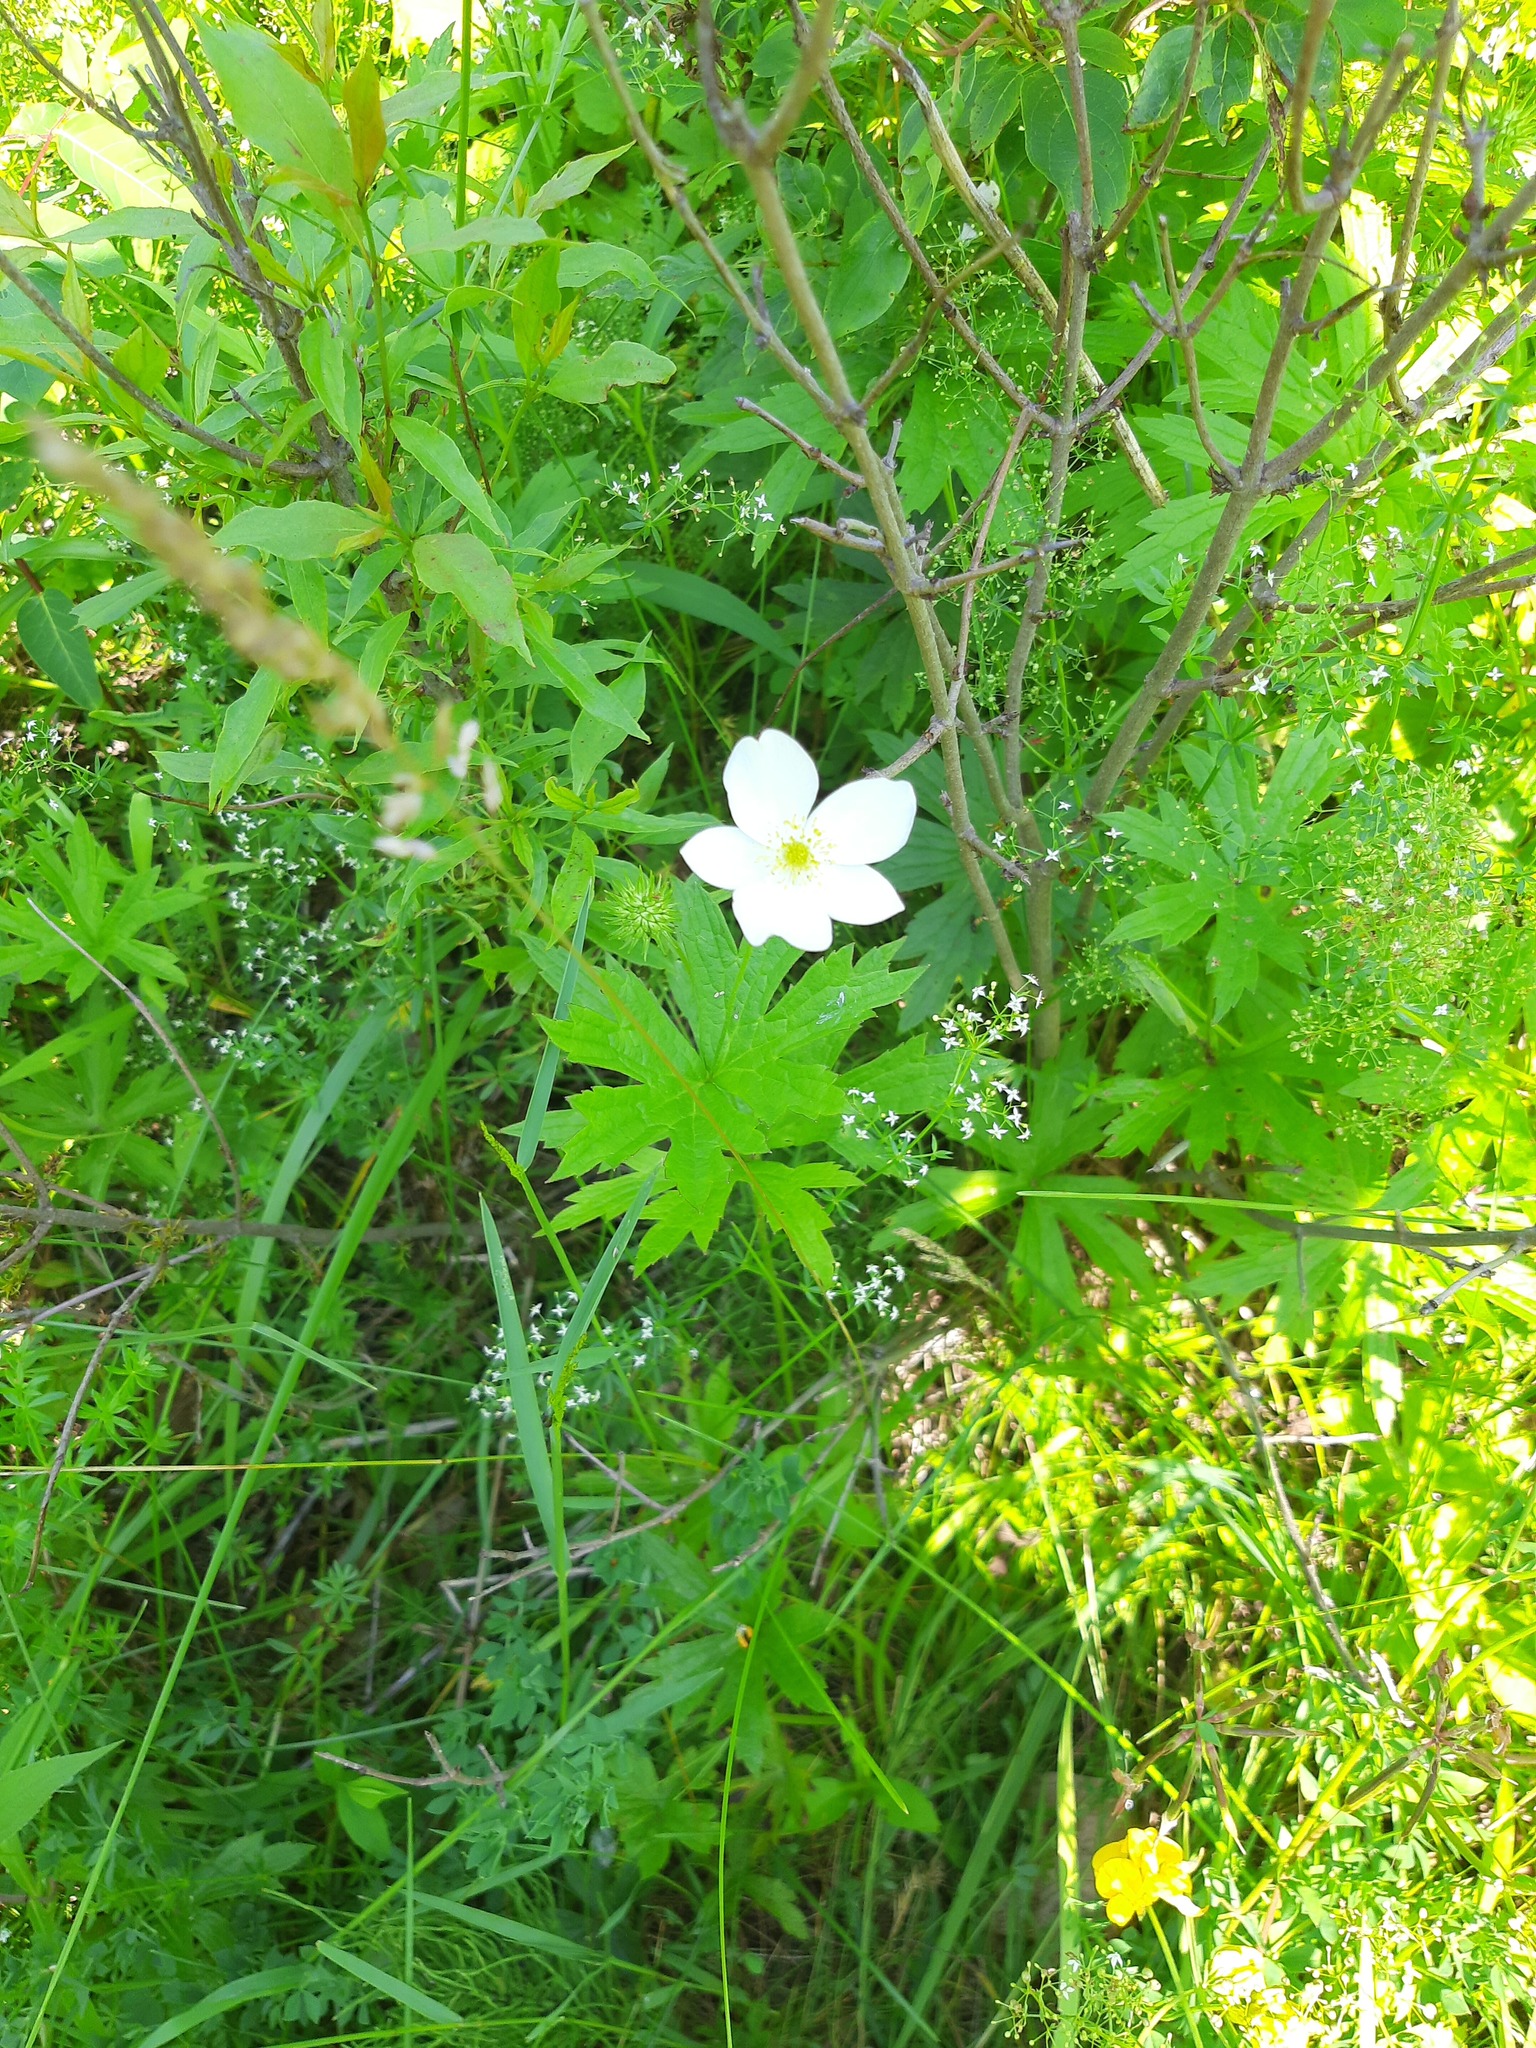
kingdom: Plantae
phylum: Tracheophyta
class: Magnoliopsida
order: Ranunculales
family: Ranunculaceae
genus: Anemonastrum
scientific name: Anemonastrum canadense
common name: Canada anemone
